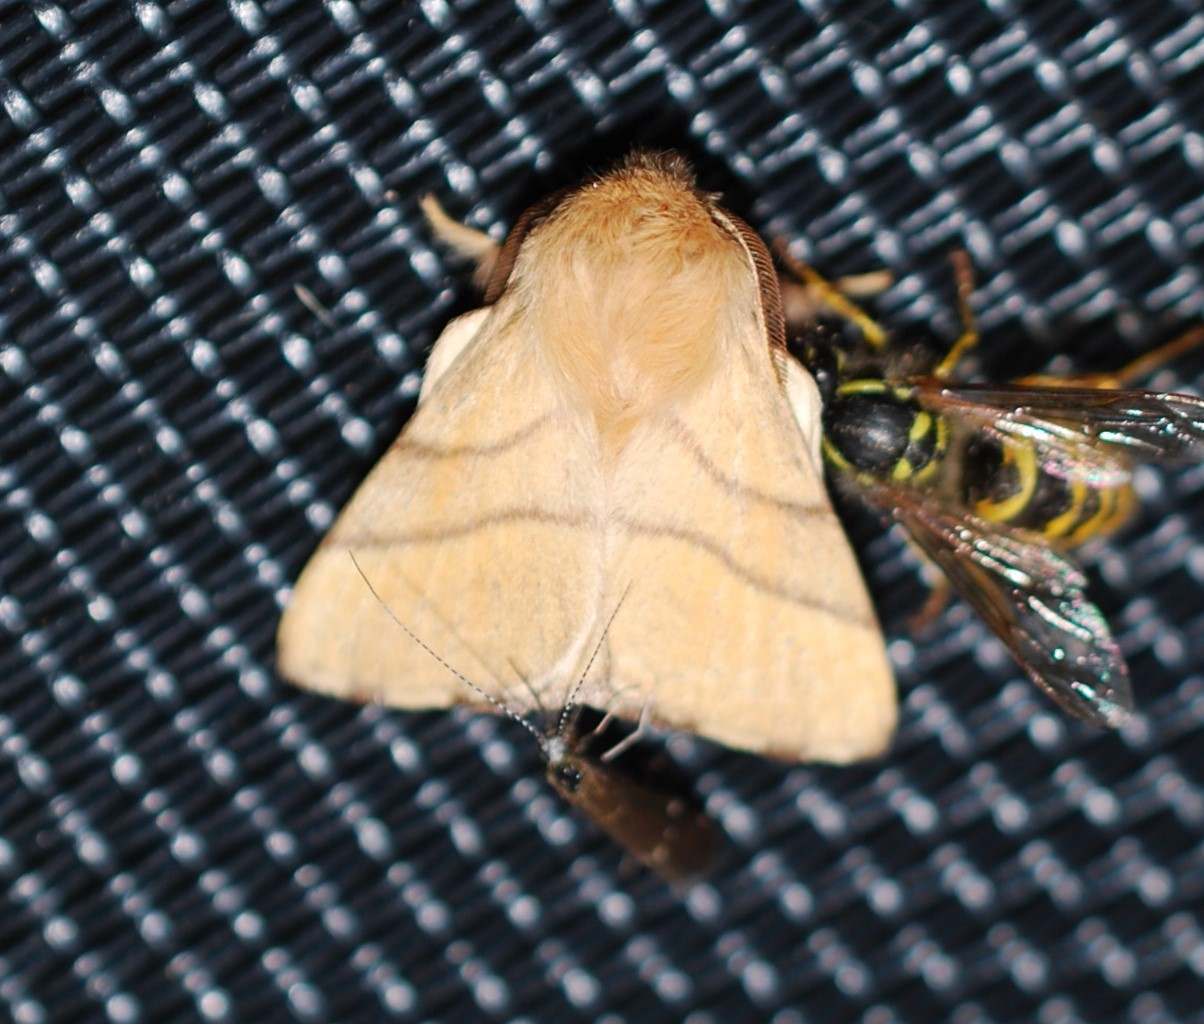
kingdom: Animalia
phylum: Arthropoda
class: Insecta
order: Lepidoptera
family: Lasiocampidae
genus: Malacosoma
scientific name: Malacosoma neustria
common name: The lackey
